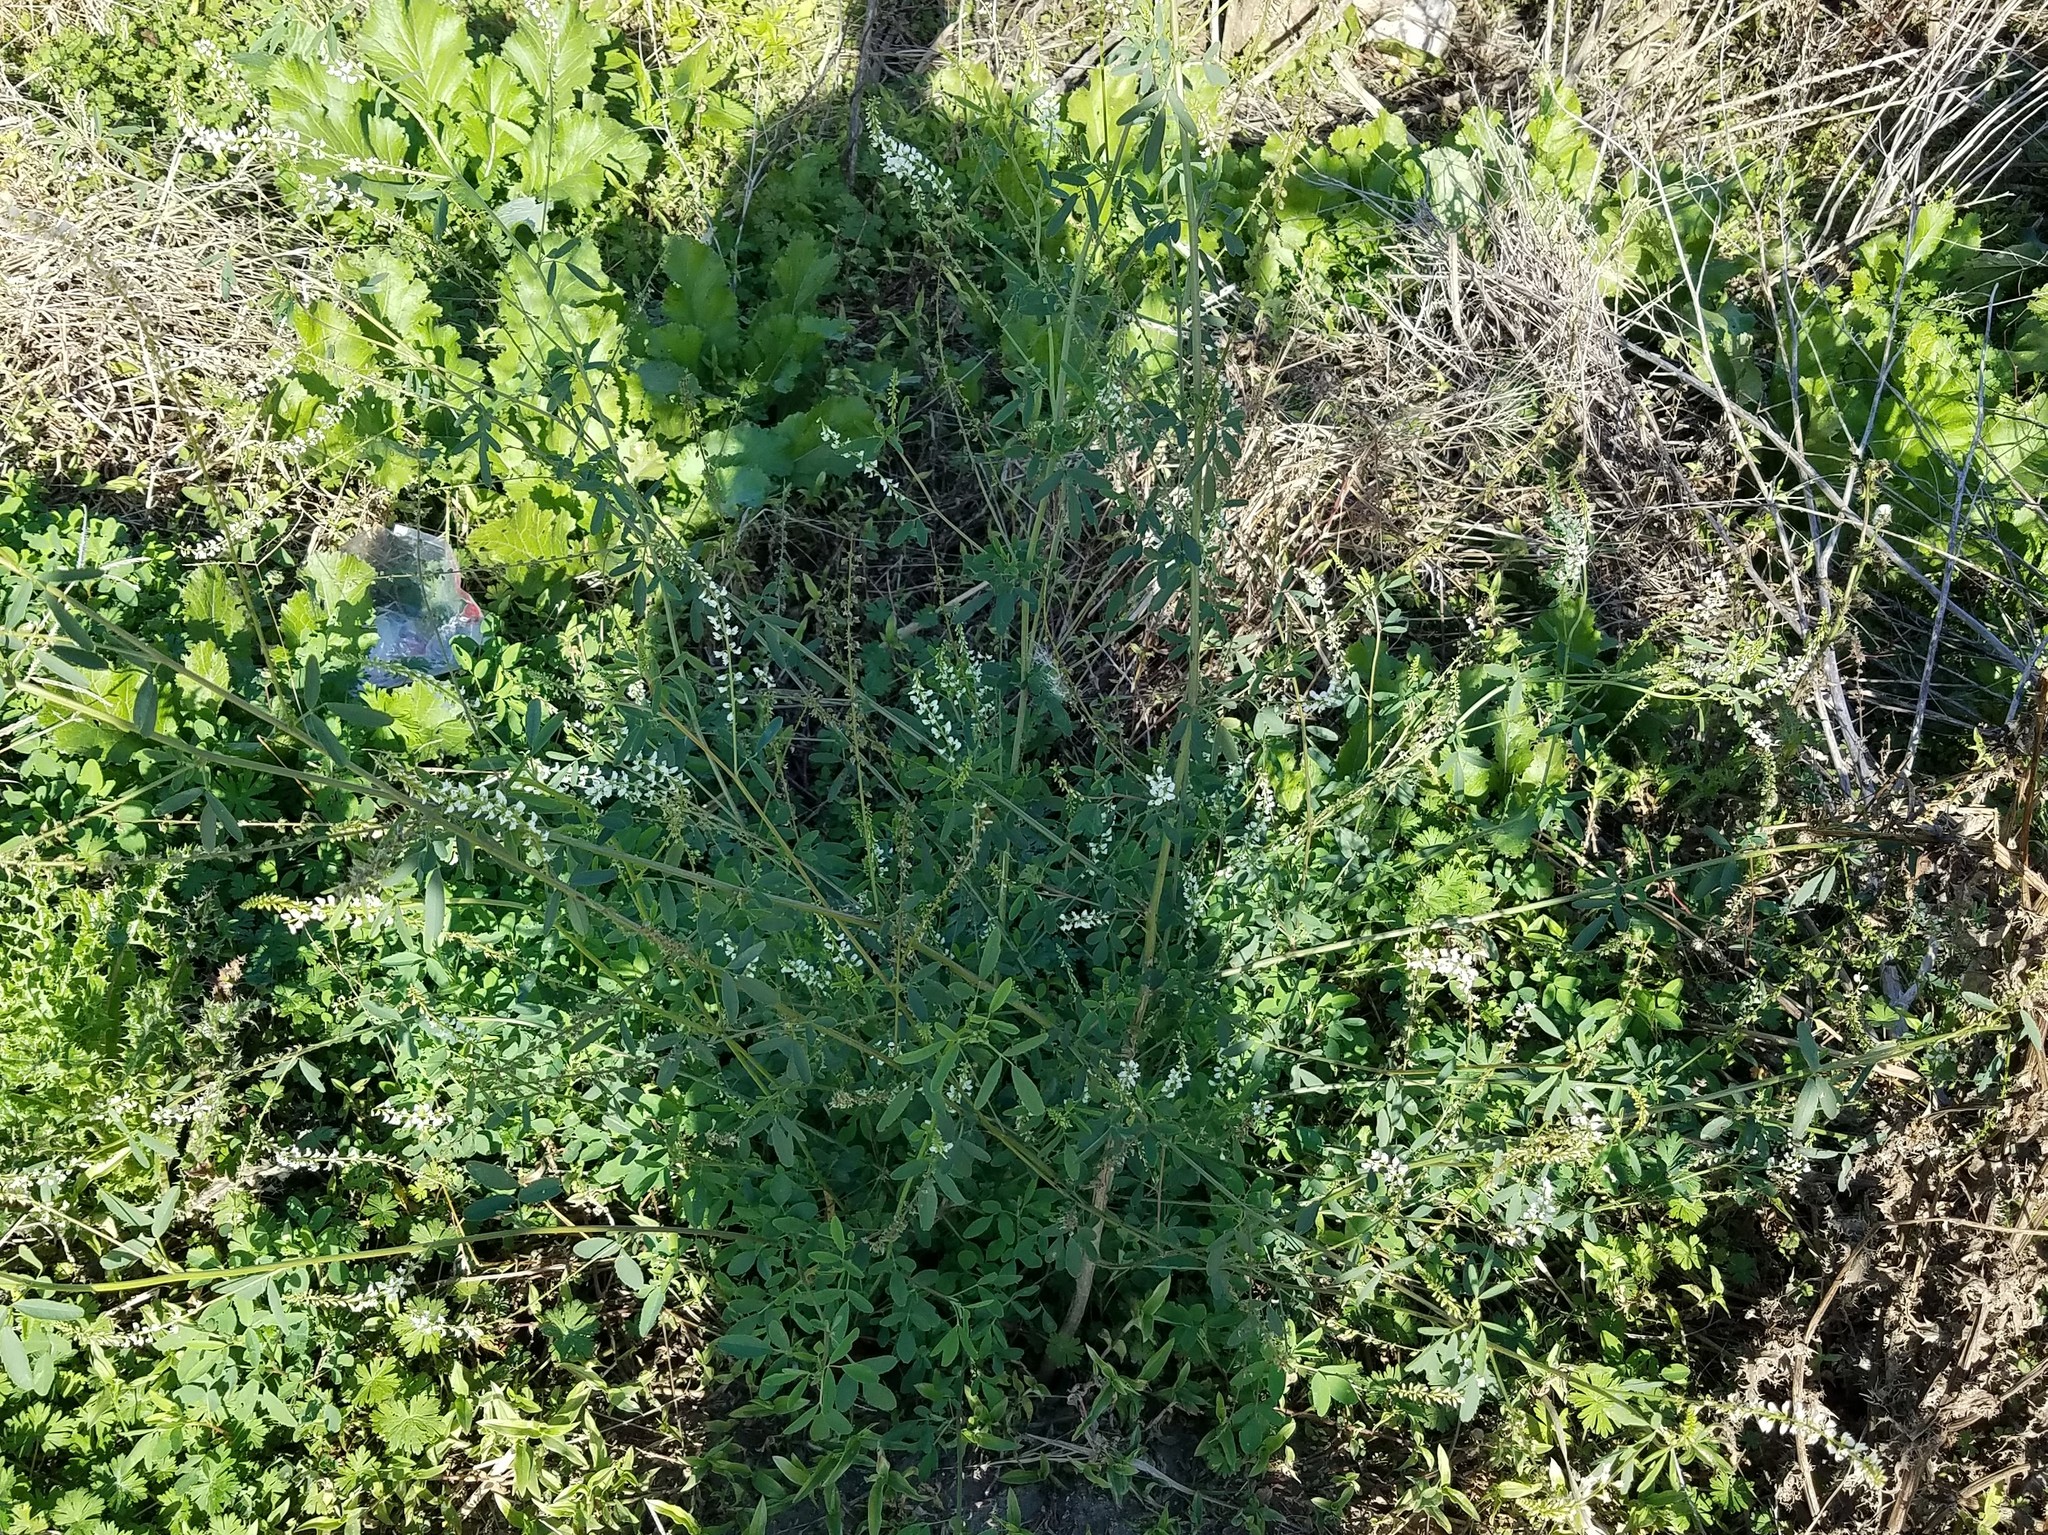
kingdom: Plantae
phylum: Tracheophyta
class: Magnoliopsida
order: Fabales
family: Fabaceae
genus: Melilotus
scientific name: Melilotus albus
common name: White melilot
